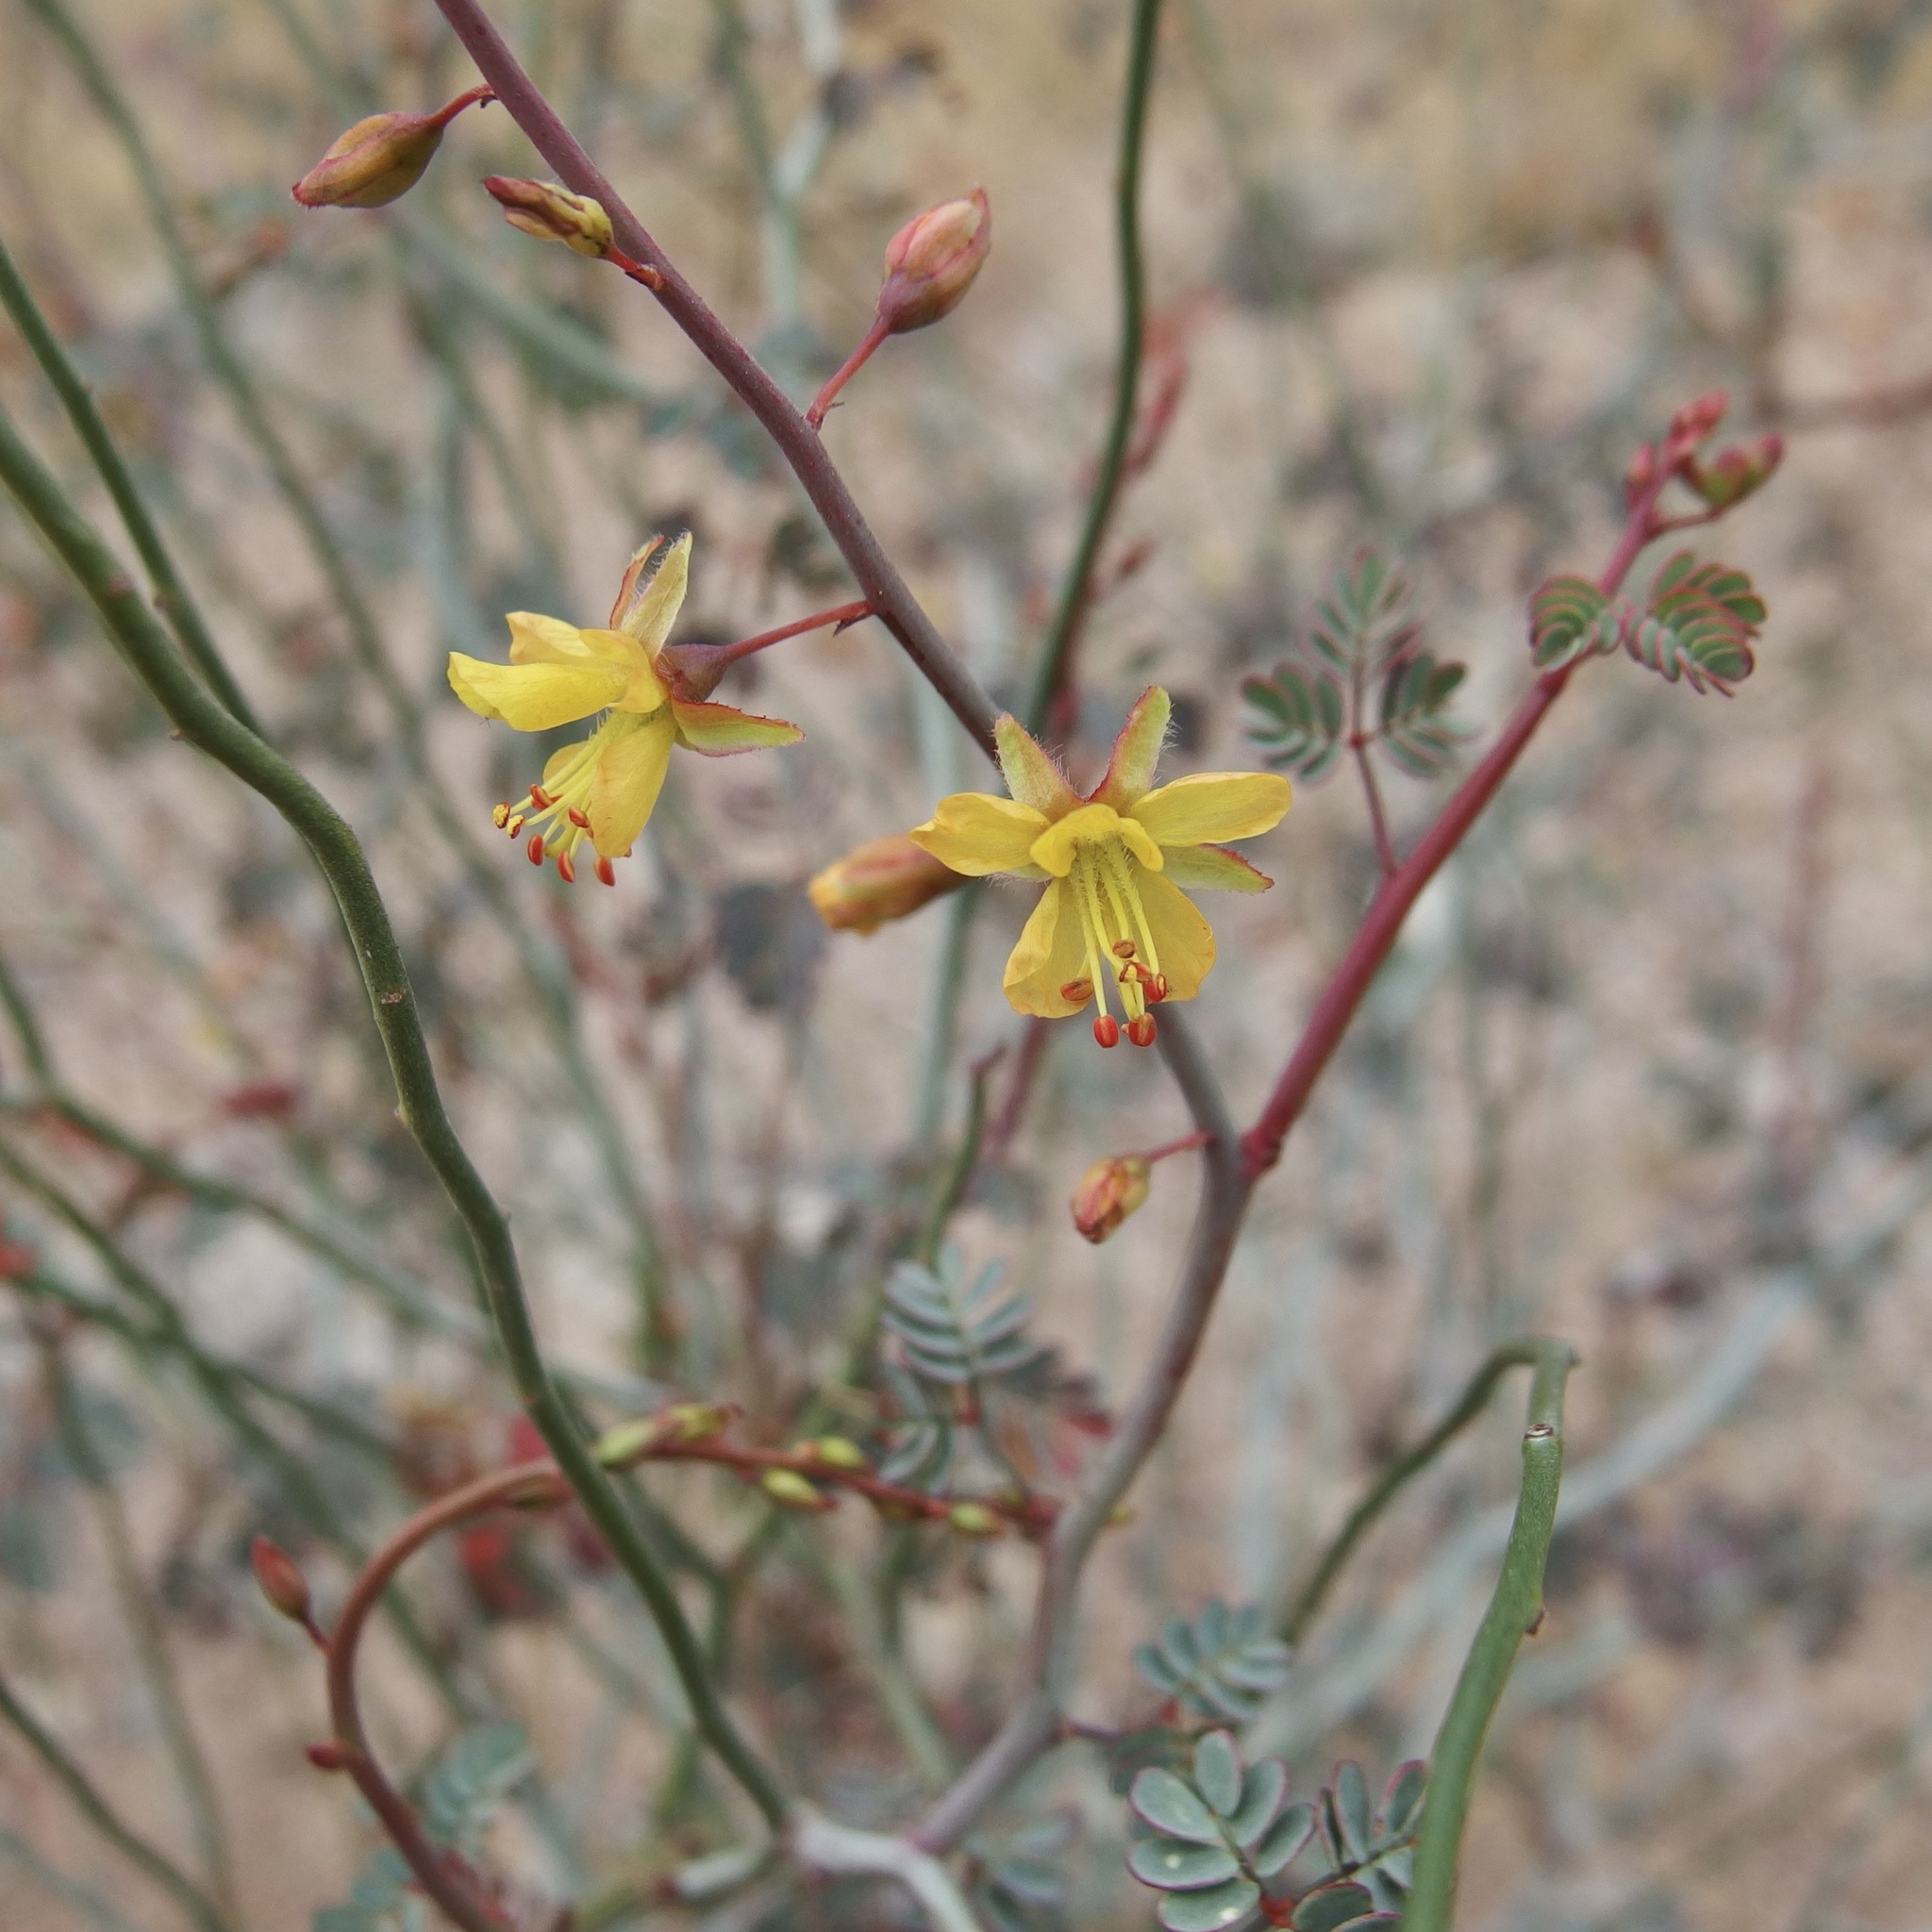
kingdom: Plantae
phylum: Tracheophyta
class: Magnoliopsida
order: Fabales
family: Fabaceae
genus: Hoffmannseggia
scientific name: Hoffmannseggia intricata
